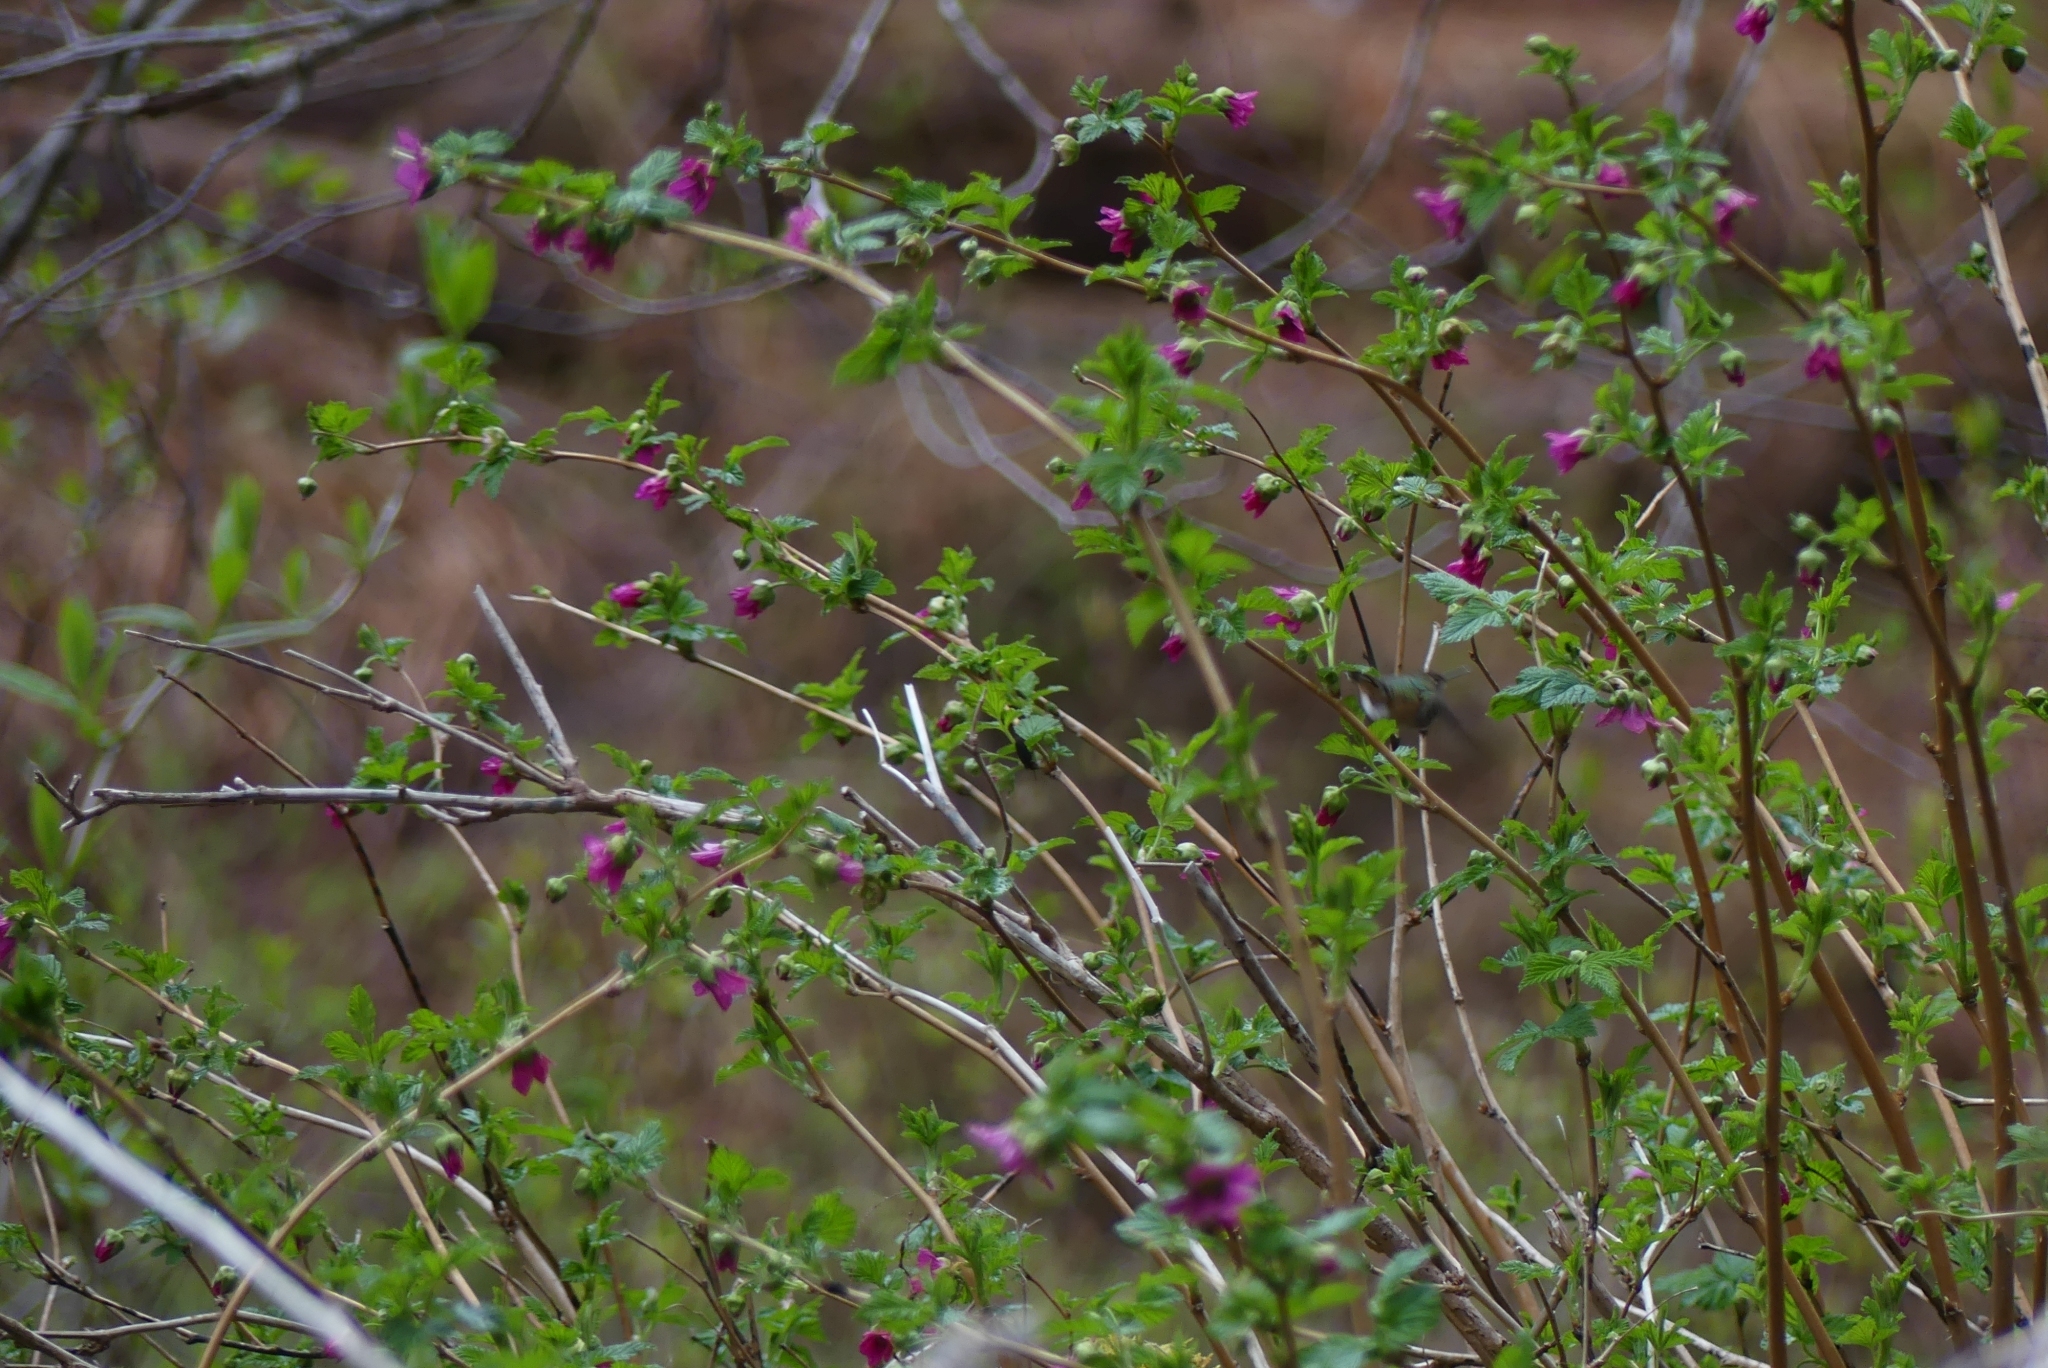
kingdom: Plantae
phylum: Tracheophyta
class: Magnoliopsida
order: Rosales
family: Rosaceae
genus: Rubus
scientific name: Rubus spectabilis
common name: Salmonberry
